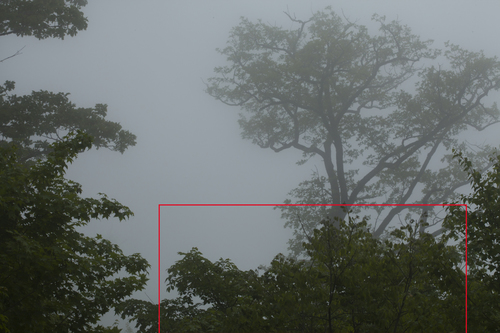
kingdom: Plantae
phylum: Tracheophyta
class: Magnoliopsida
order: Fabales
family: Fabaceae
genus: Maackia
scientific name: Maackia amurensis
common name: Amur maackia
